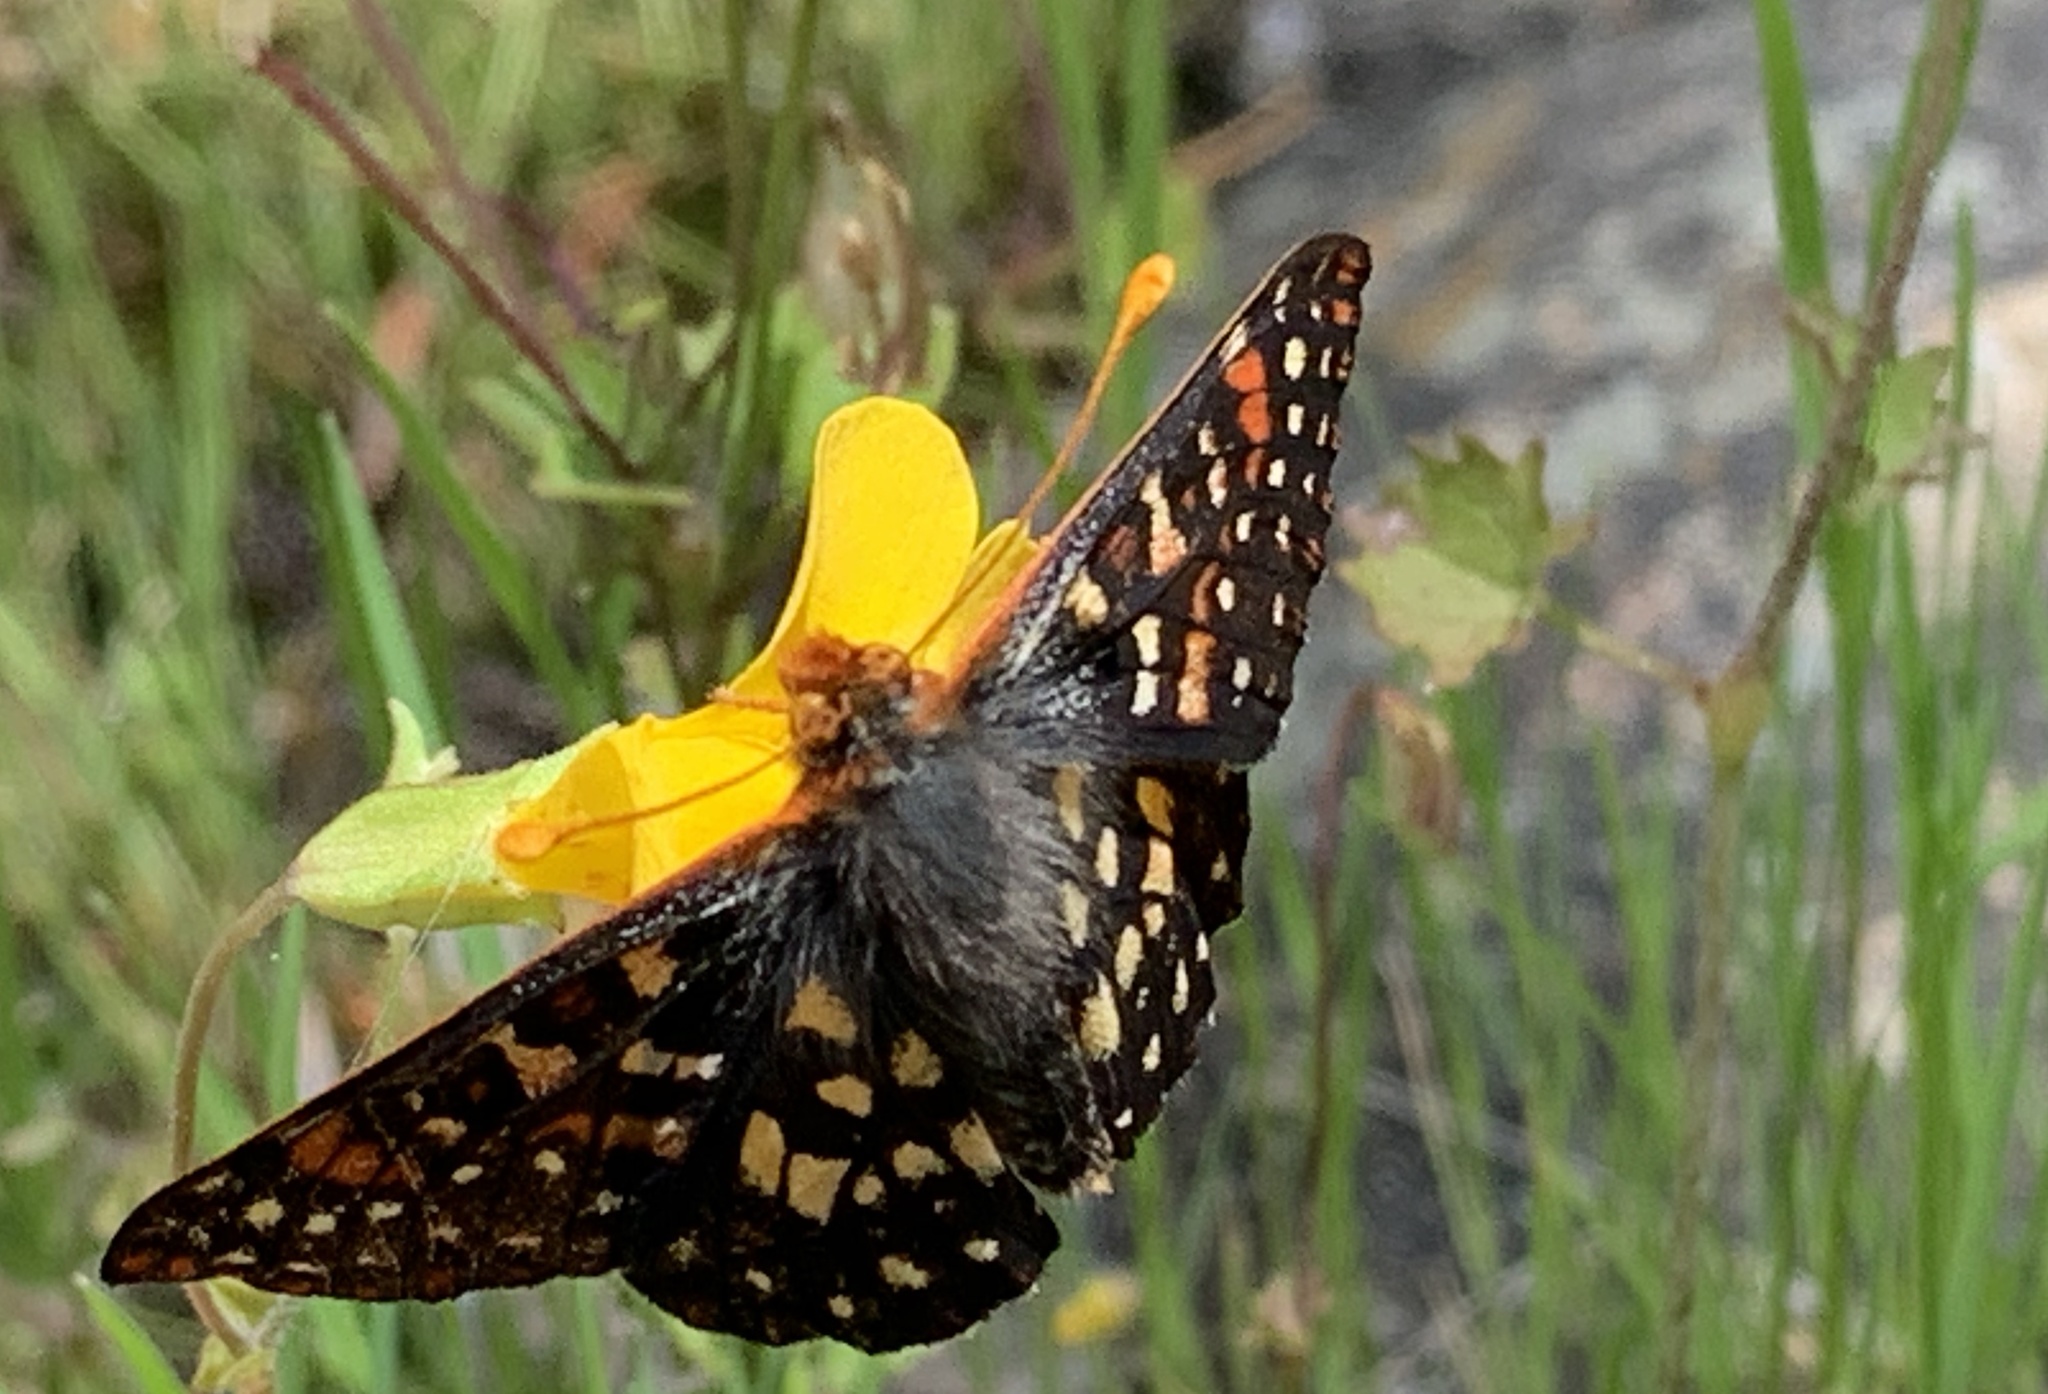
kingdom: Animalia
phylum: Arthropoda
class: Insecta
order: Lepidoptera
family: Nymphalidae
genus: Occidryas
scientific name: Occidryas chalcedona
